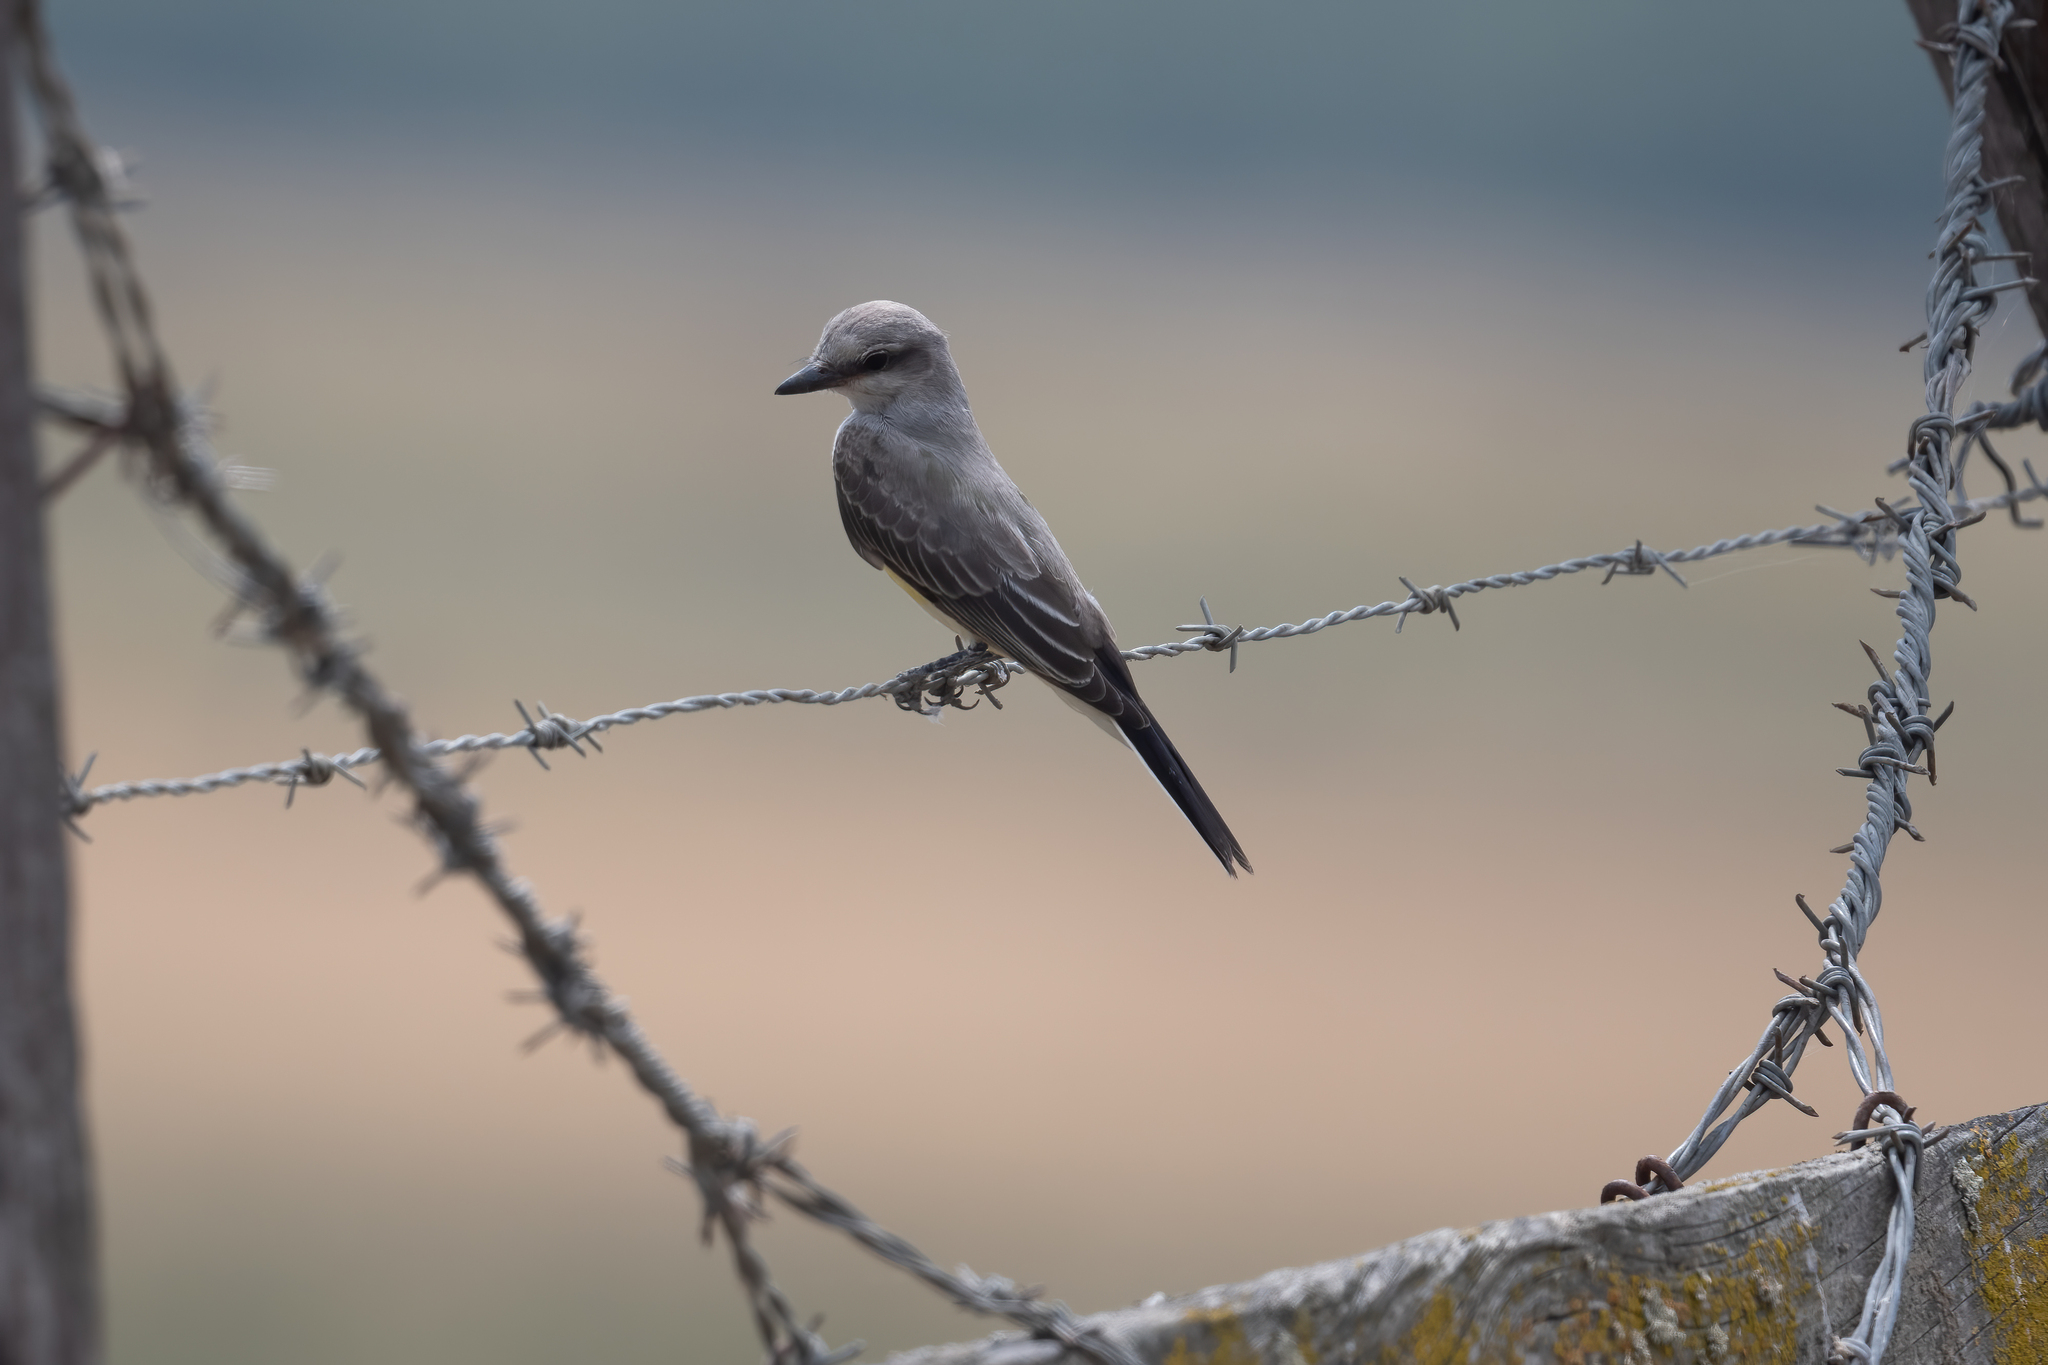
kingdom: Animalia
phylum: Chordata
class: Aves
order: Passeriformes
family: Tyrannidae
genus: Tyrannus
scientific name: Tyrannus verticalis
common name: Western kingbird
